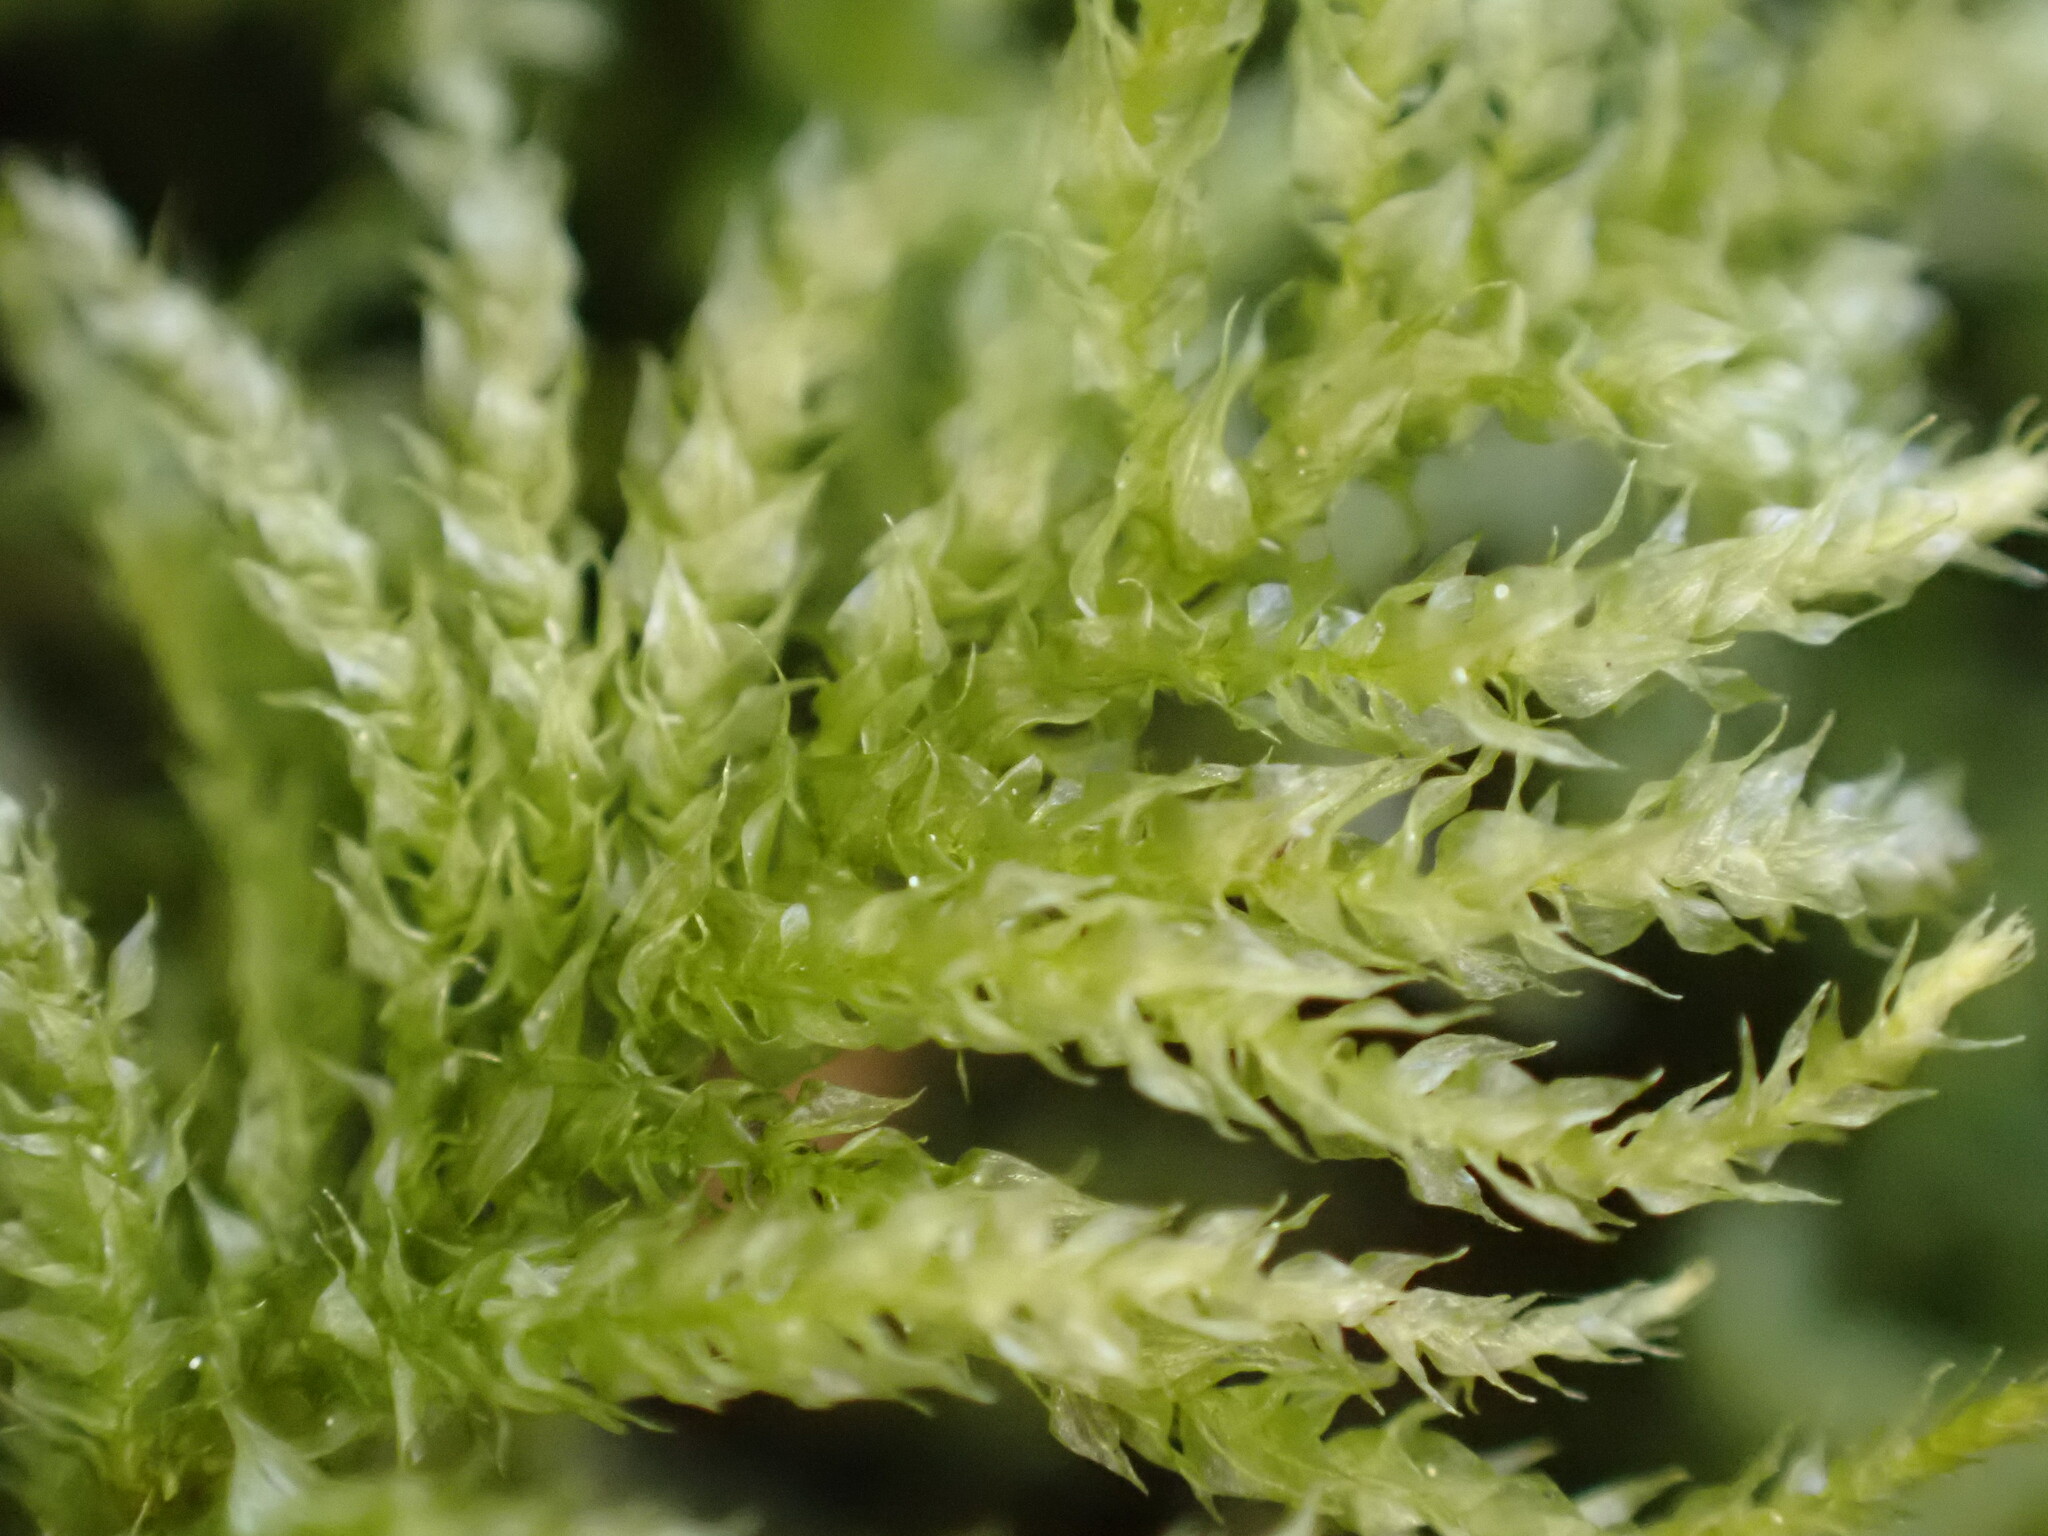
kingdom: Plantae
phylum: Bryophyta
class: Bryopsida
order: Hypnales
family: Brachytheciaceae
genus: Kindbergia
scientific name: Kindbergia oregana
